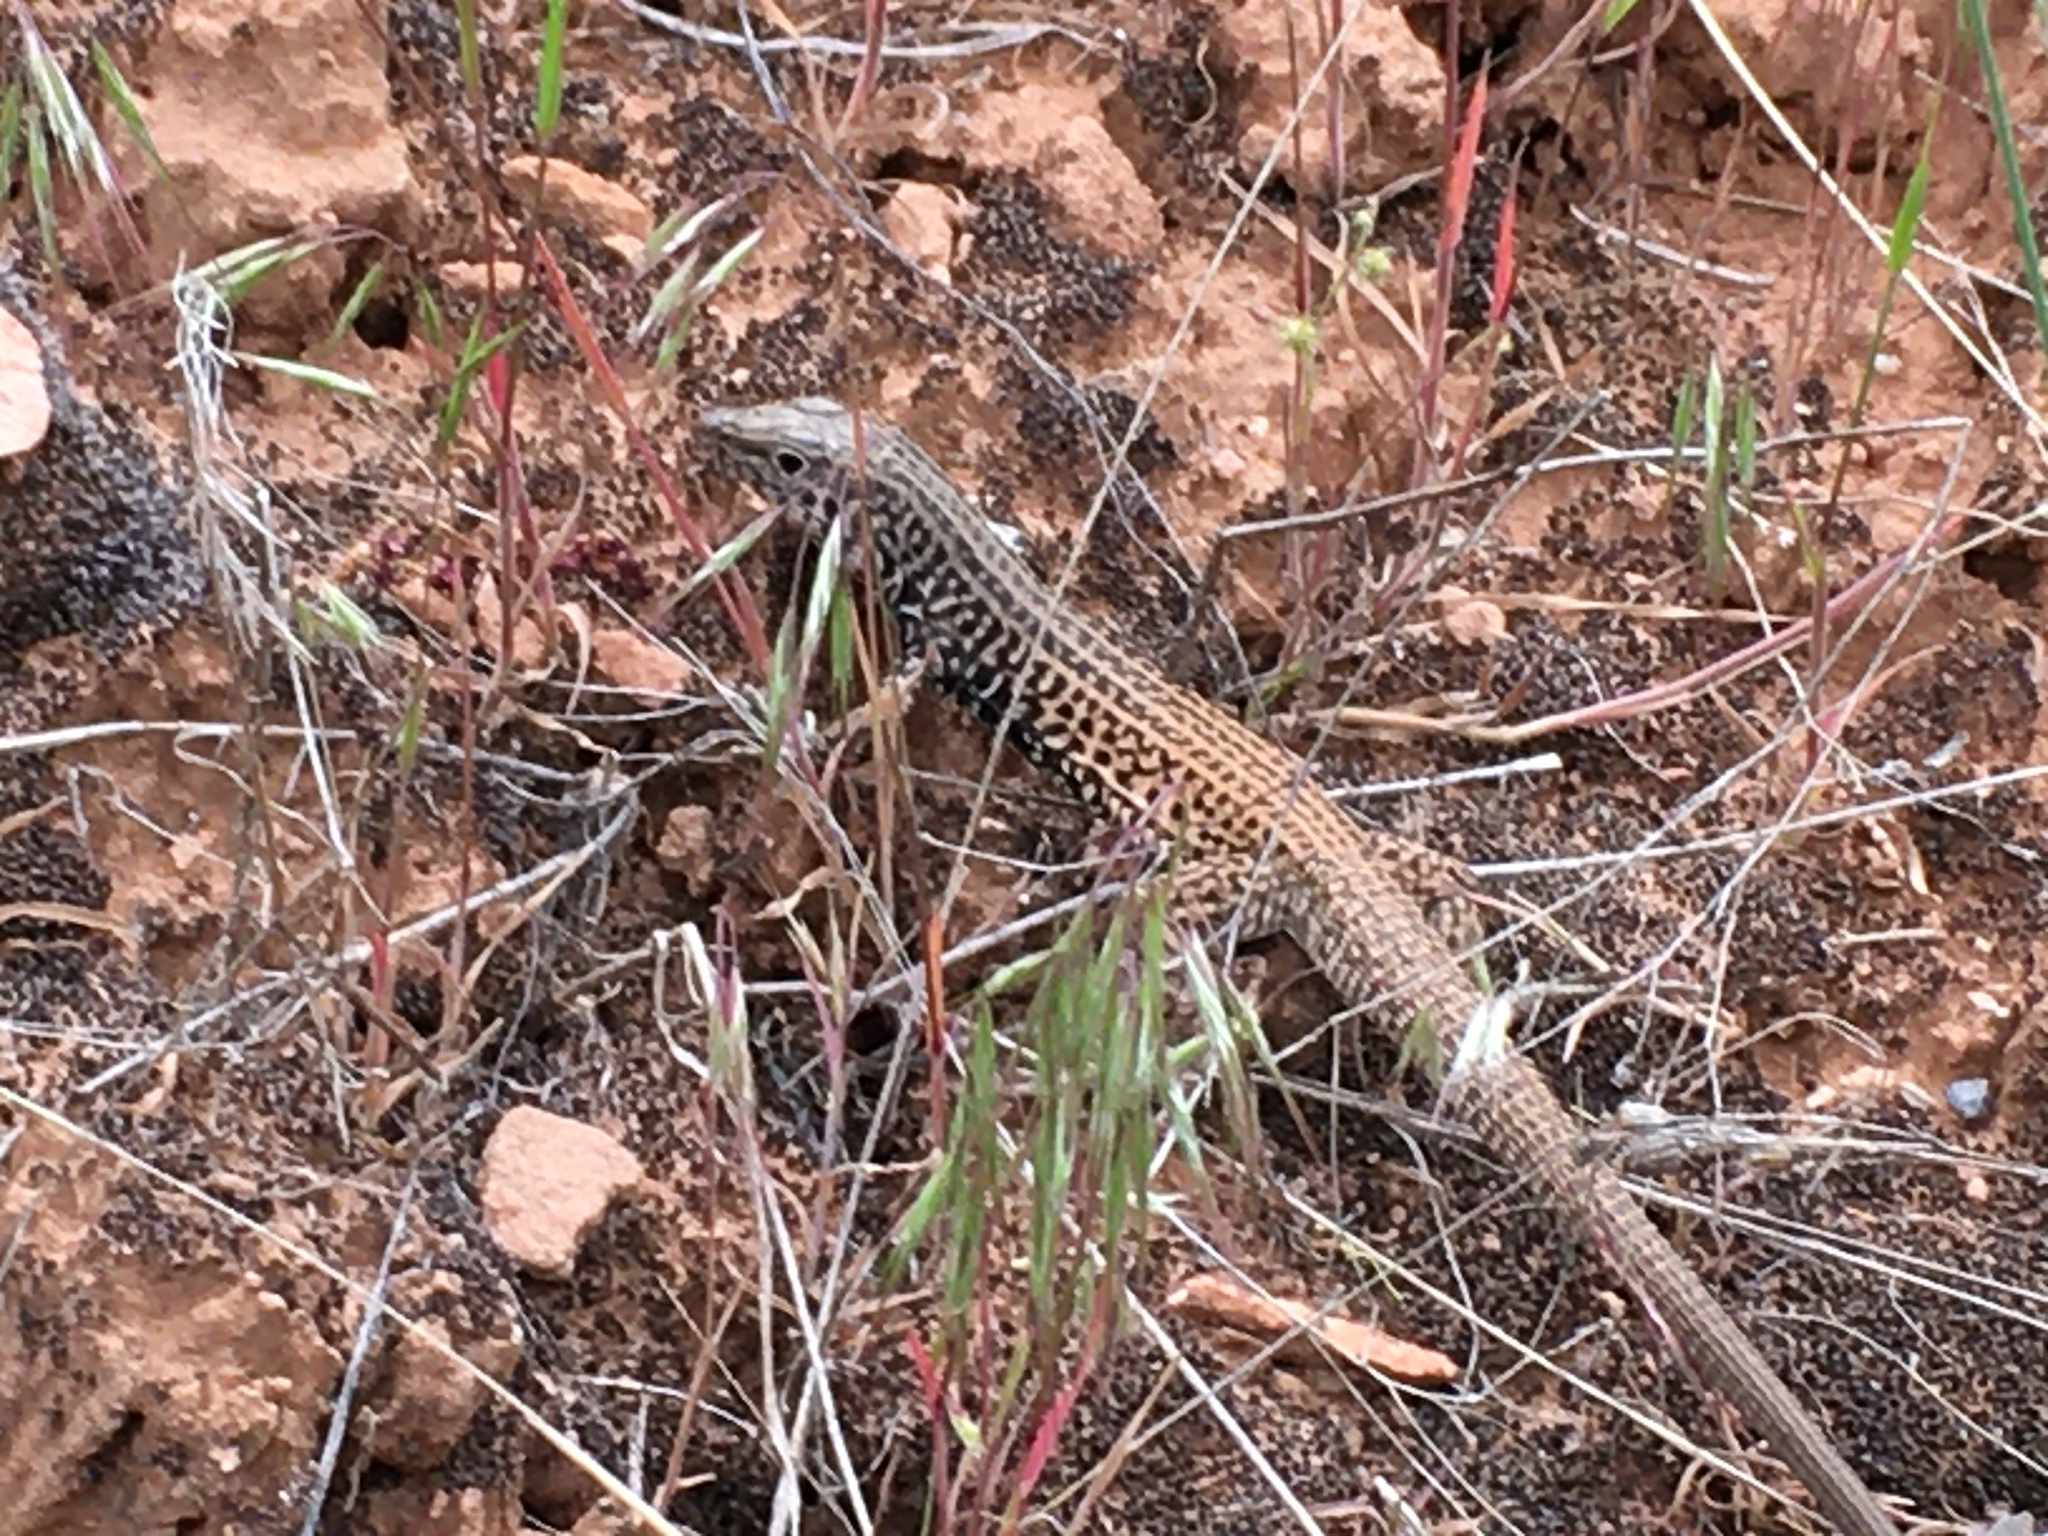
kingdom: Animalia
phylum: Chordata
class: Squamata
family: Teiidae
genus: Aspidoscelis
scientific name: Aspidoscelis tigris
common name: Tiger whiptail
